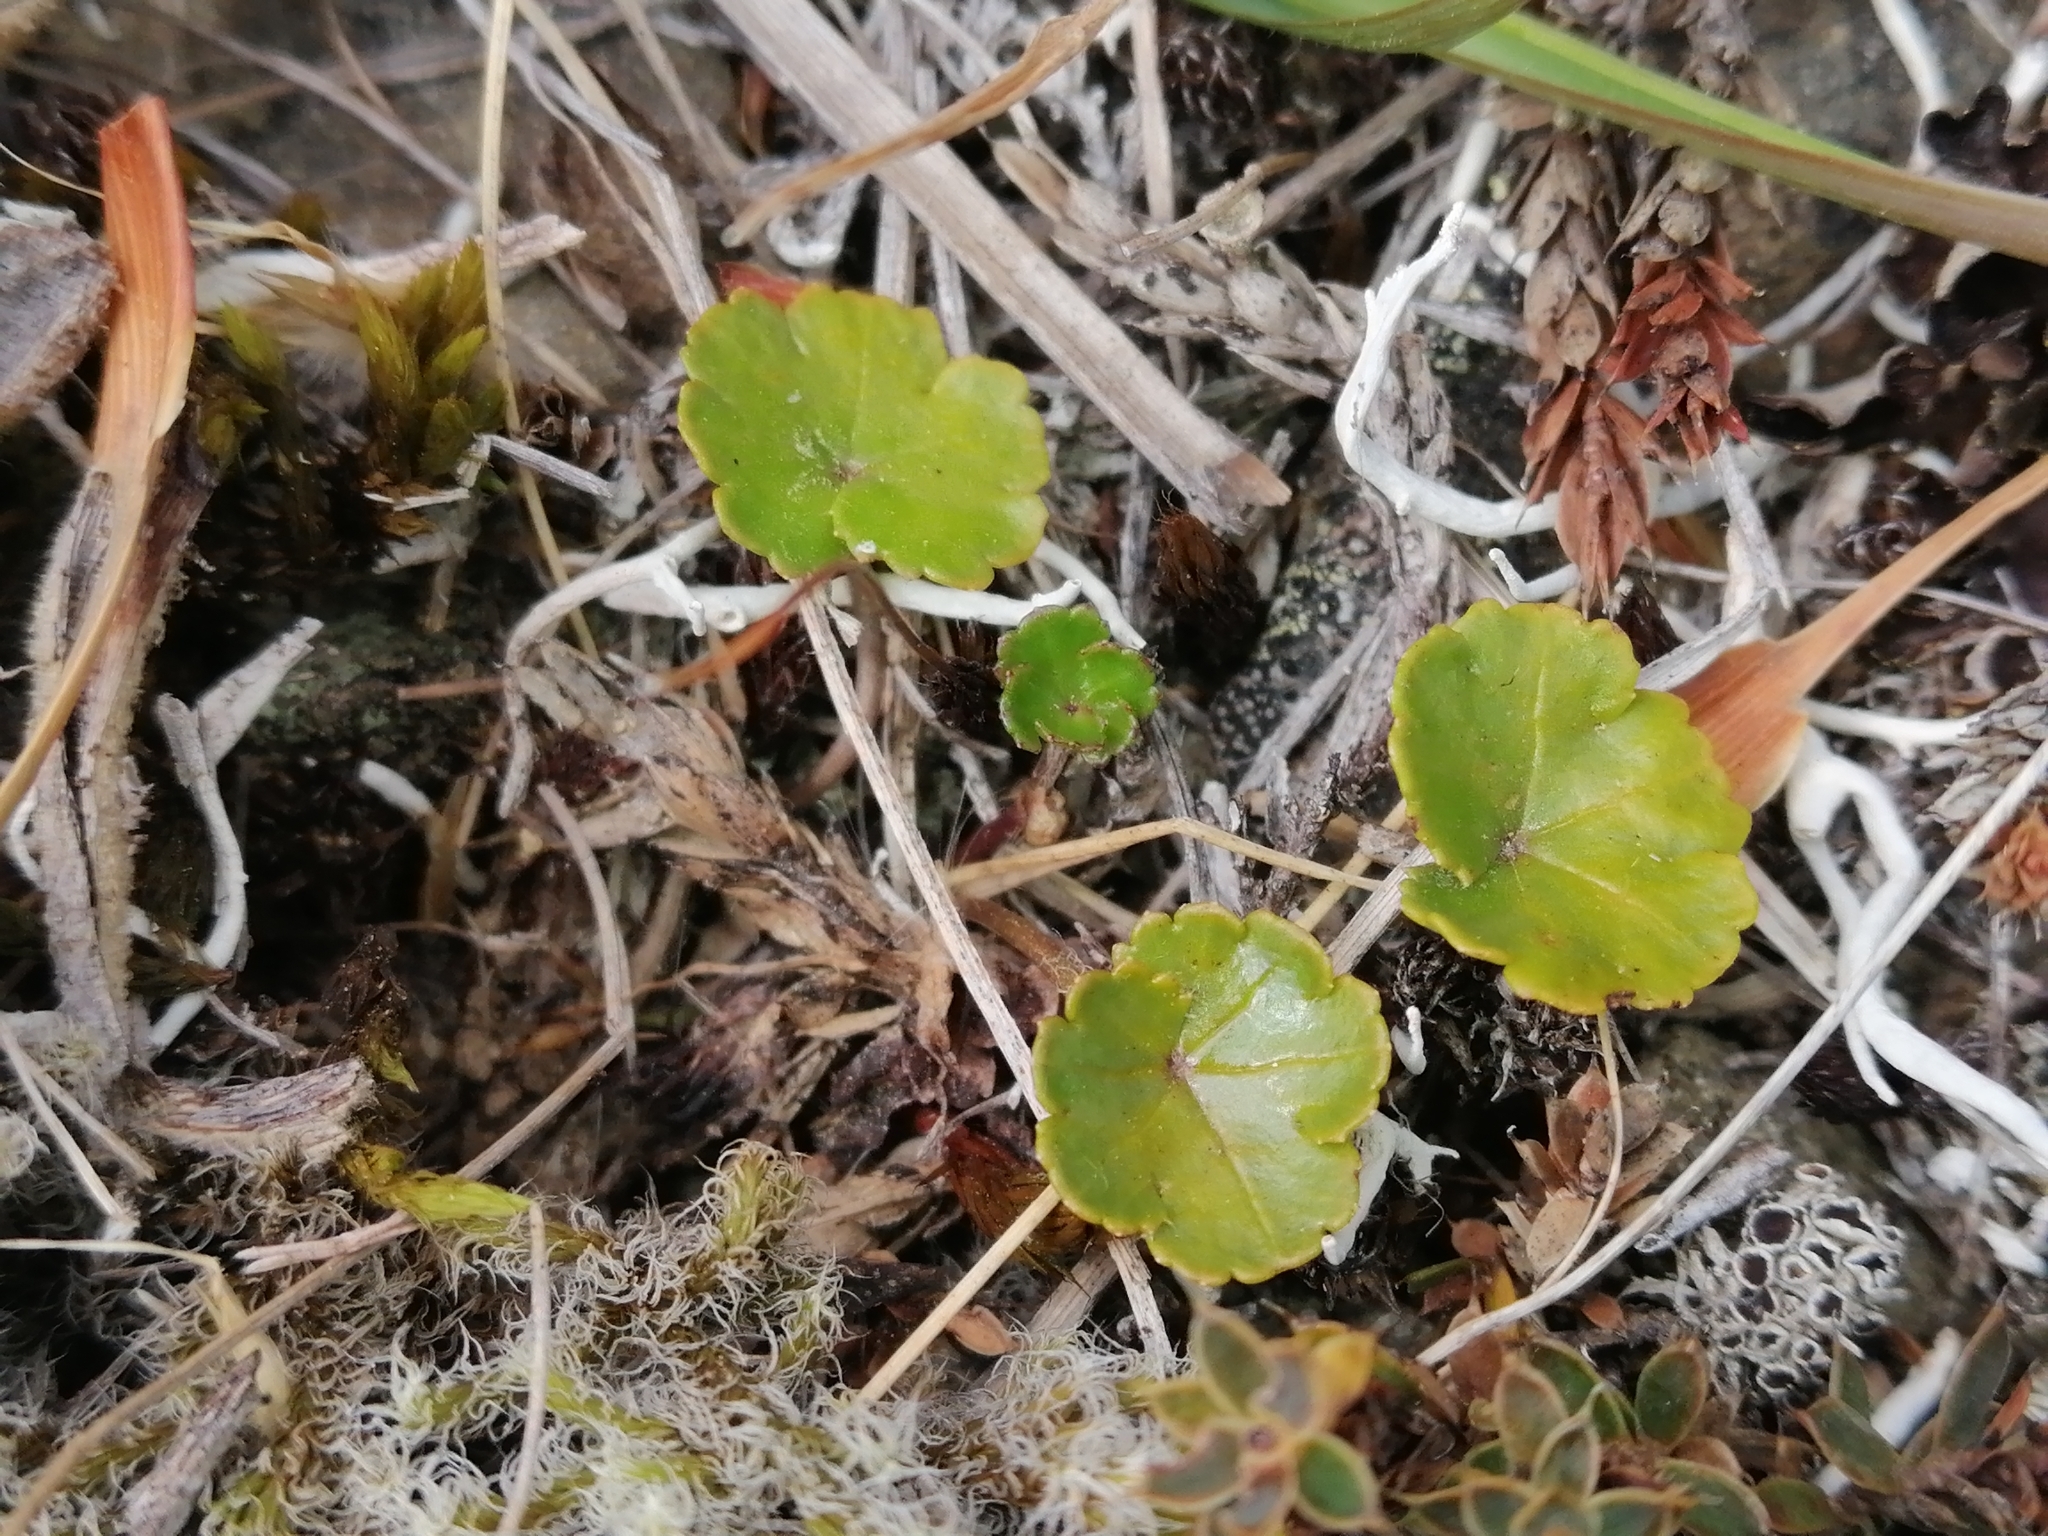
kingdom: Plantae
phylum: Tracheophyta
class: Magnoliopsida
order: Apiales
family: Araliaceae
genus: Hydrocotyle
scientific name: Hydrocotyle novae-zeelandiae
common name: New zealand pennywort
